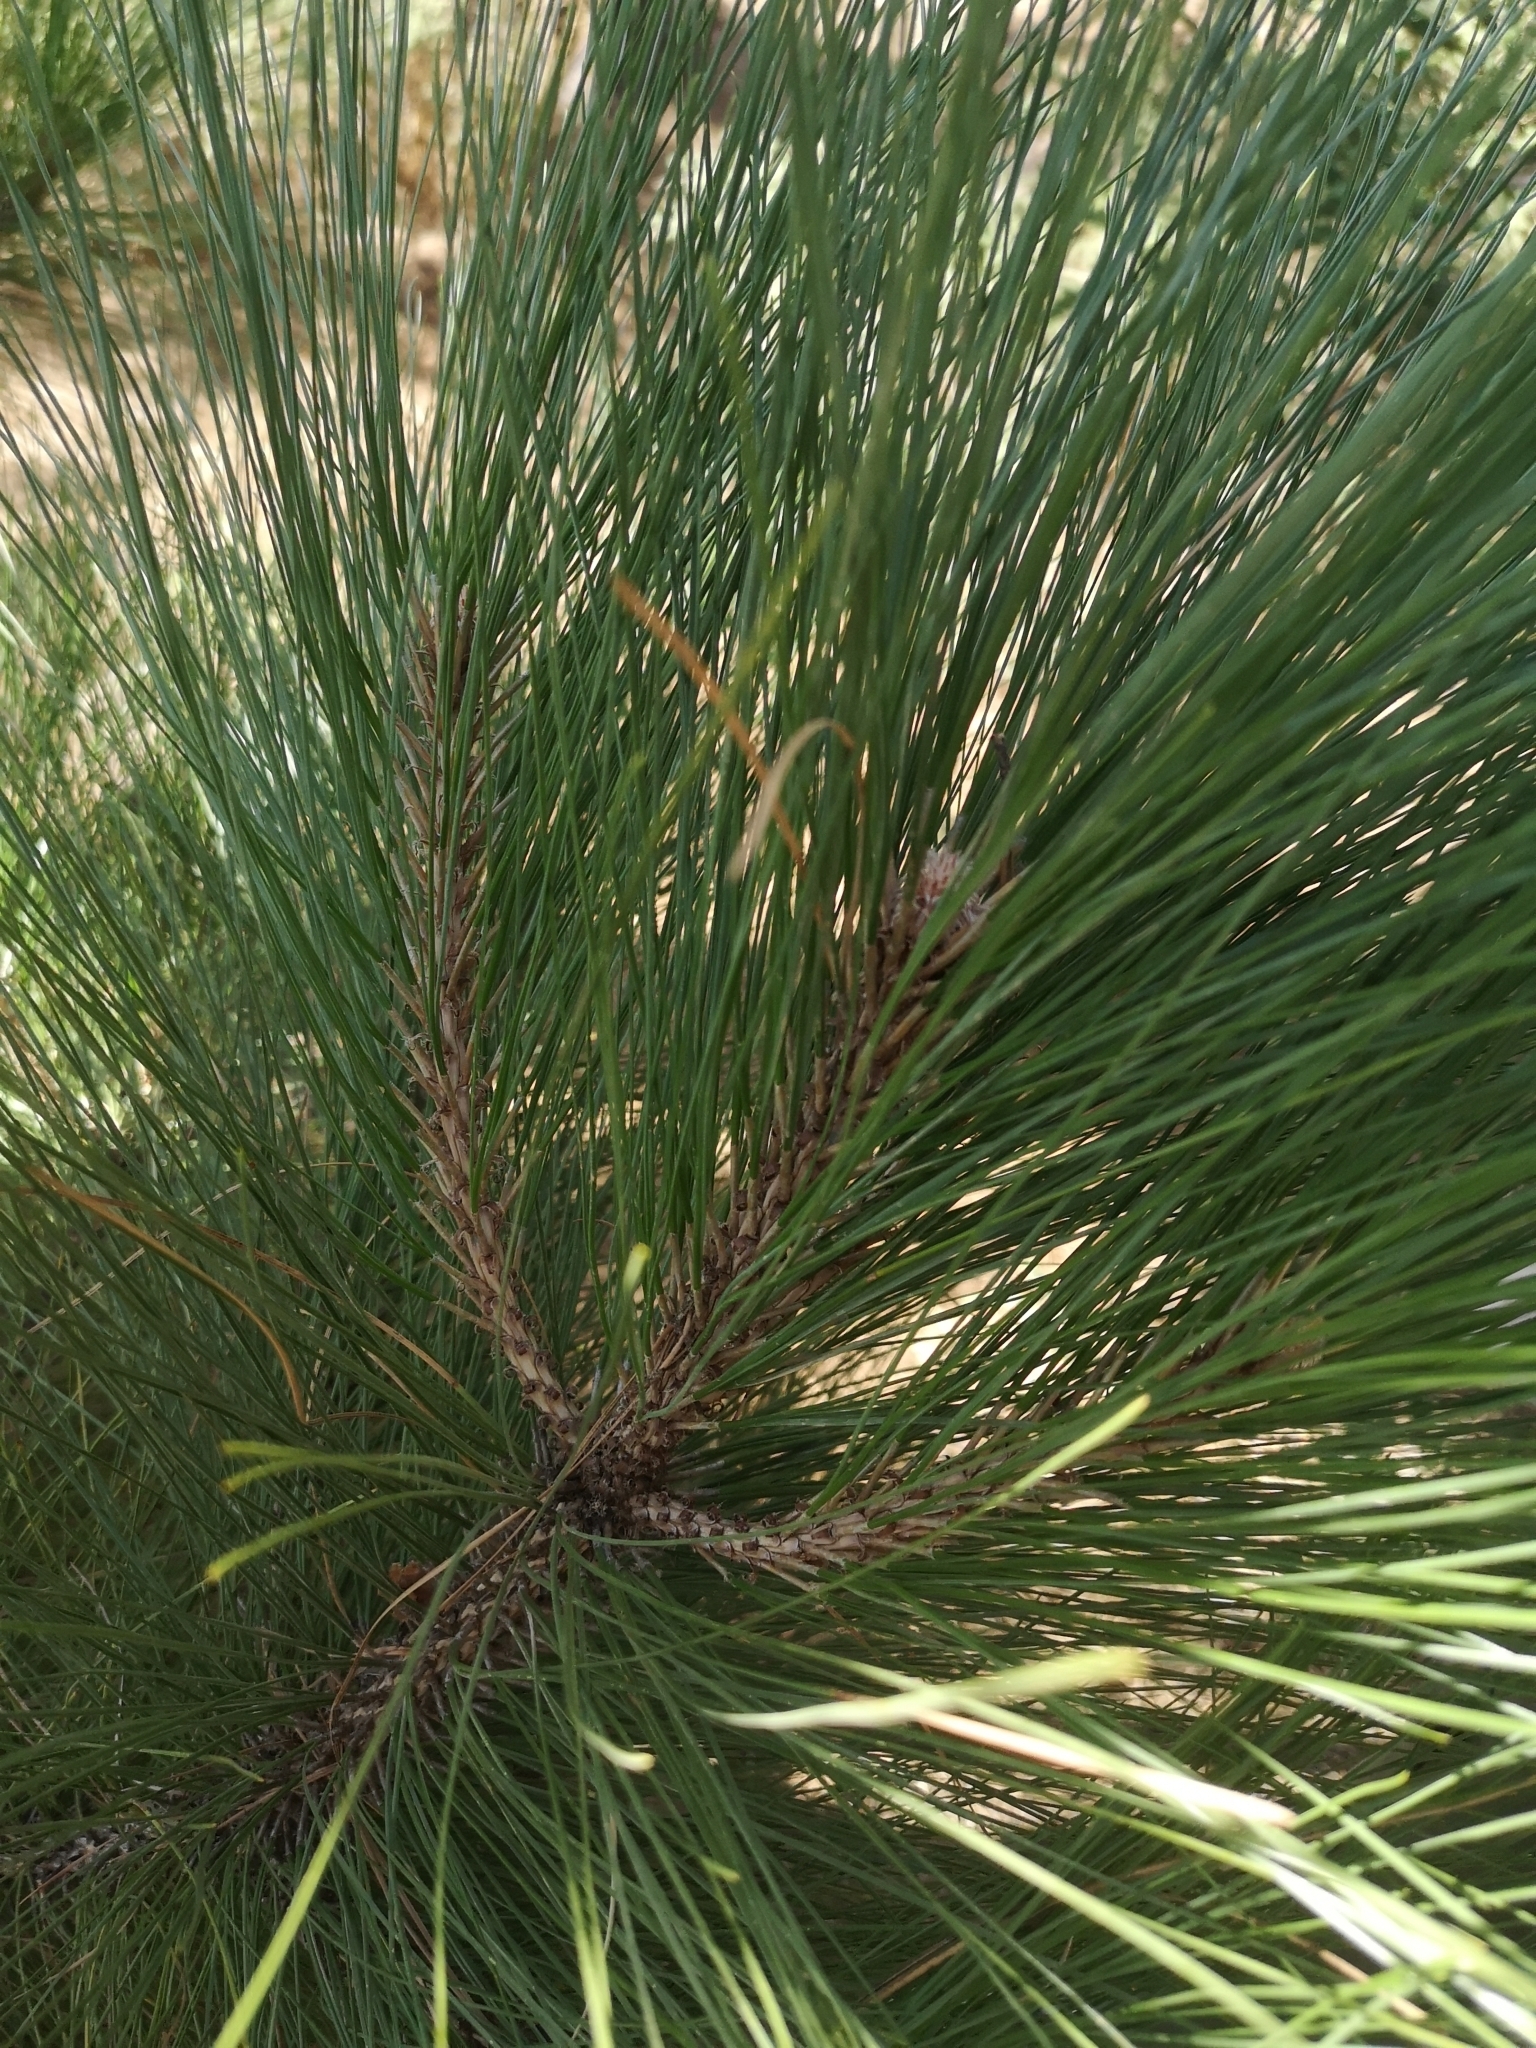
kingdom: Plantae
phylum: Tracheophyta
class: Pinopsida
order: Pinales
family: Pinaceae
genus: Pinus
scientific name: Pinus canariensis
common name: Canary islands pine
